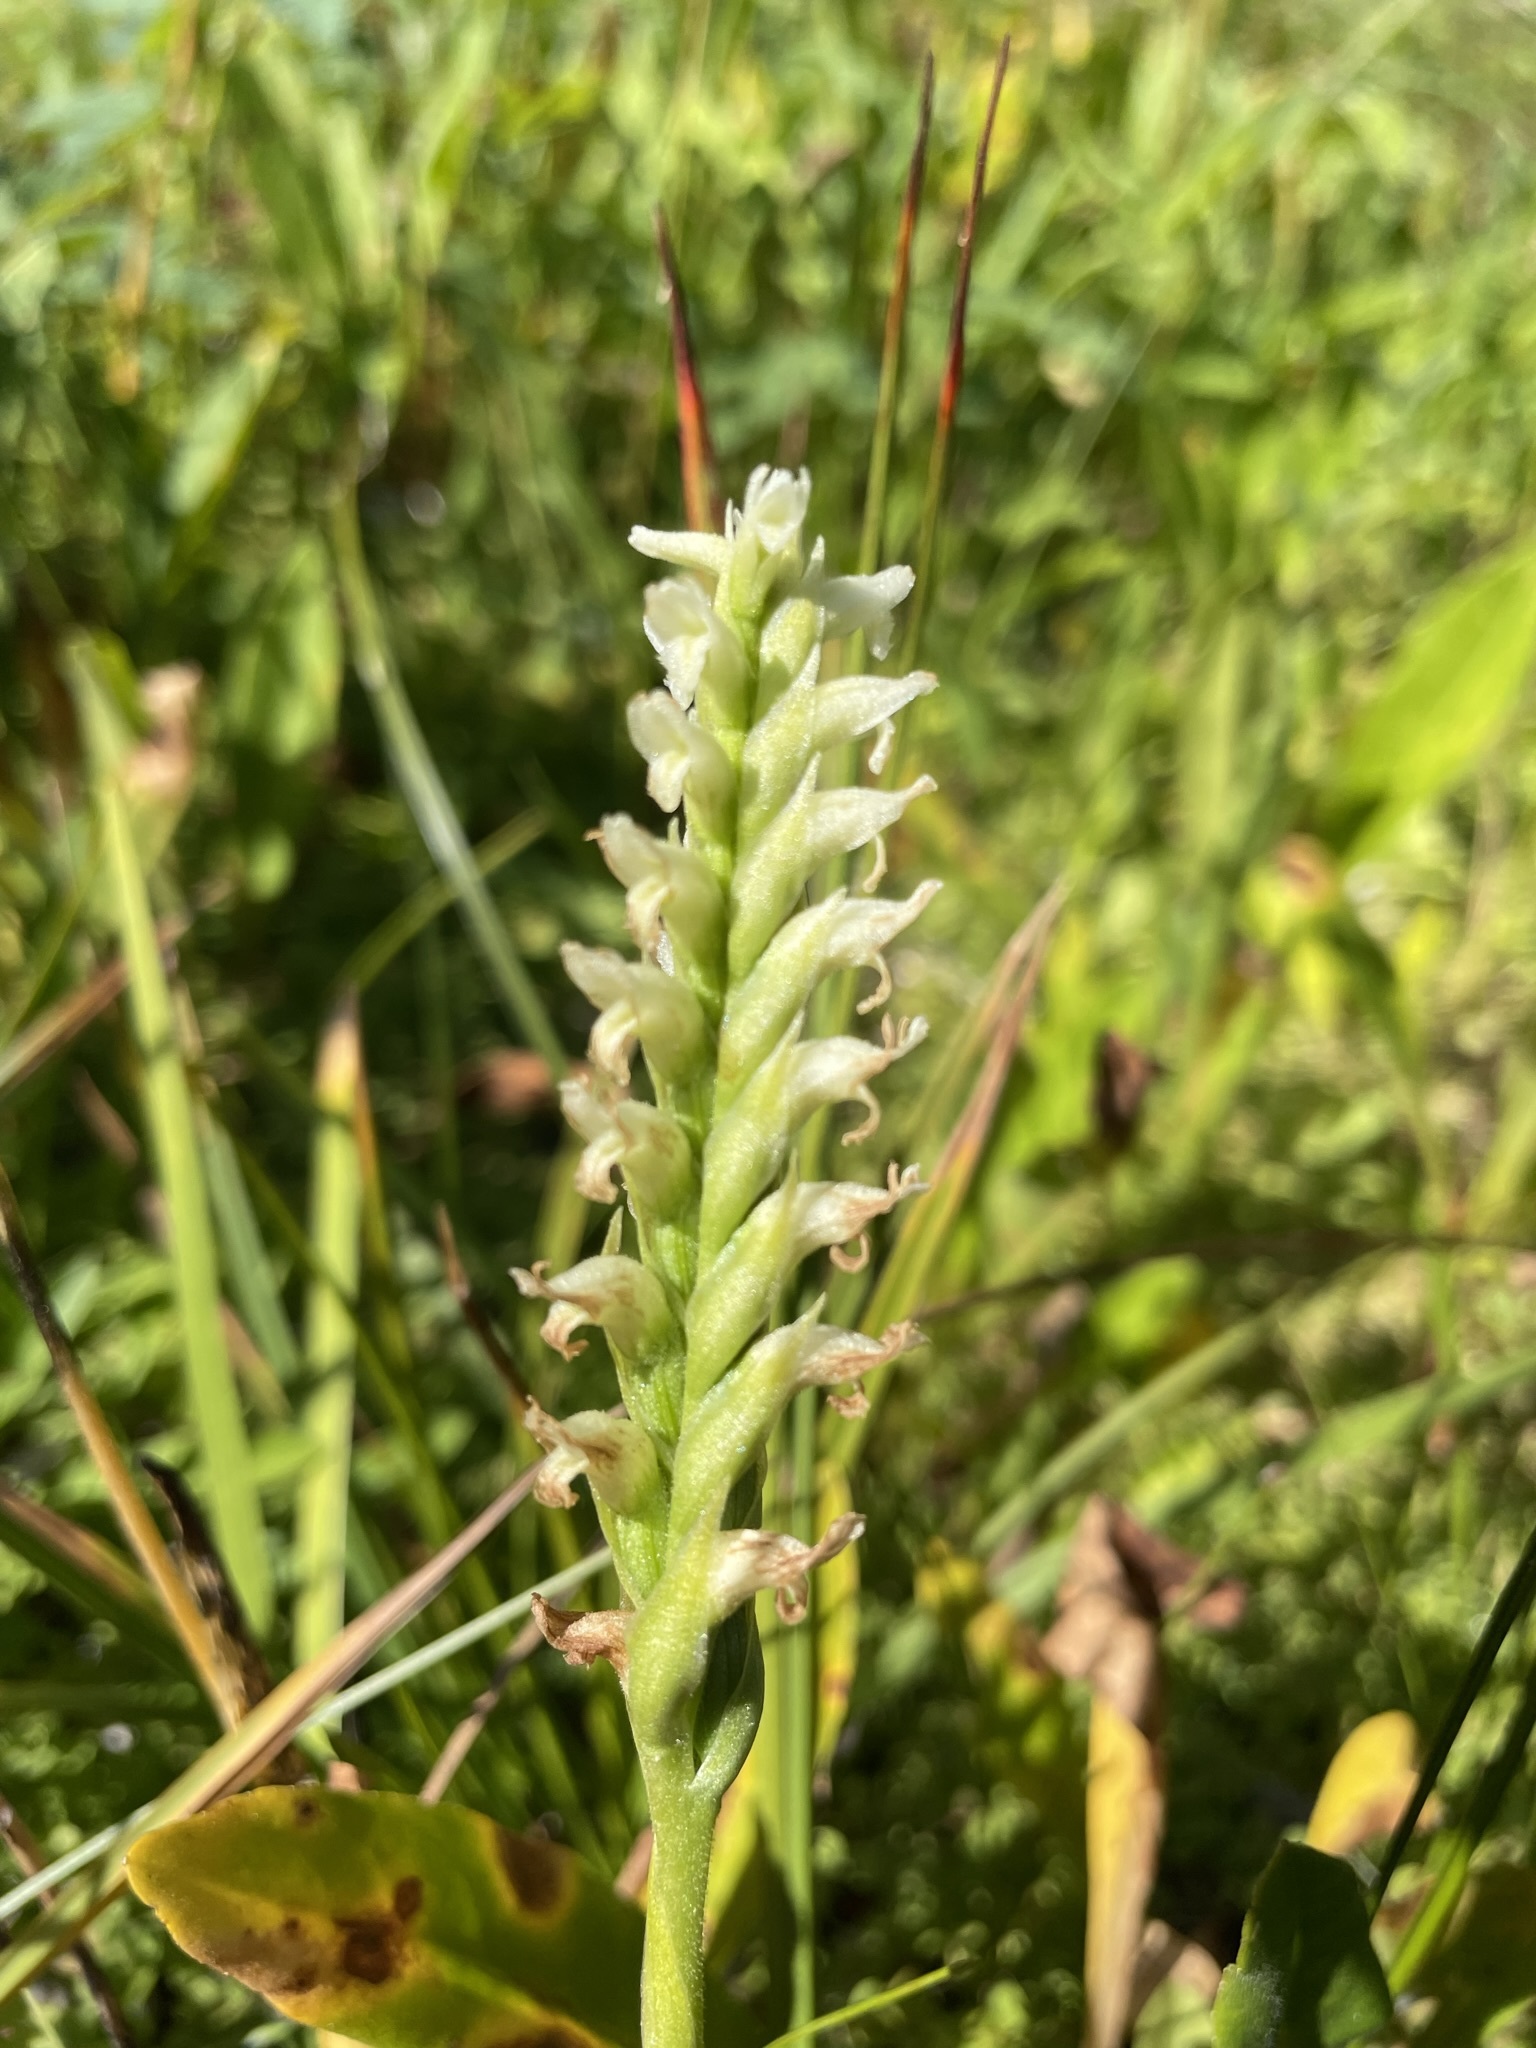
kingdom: Plantae
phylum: Tracheophyta
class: Liliopsida
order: Asparagales
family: Orchidaceae
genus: Spiranthes
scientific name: Spiranthes romanzoffiana
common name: Irish lady's-tresses
